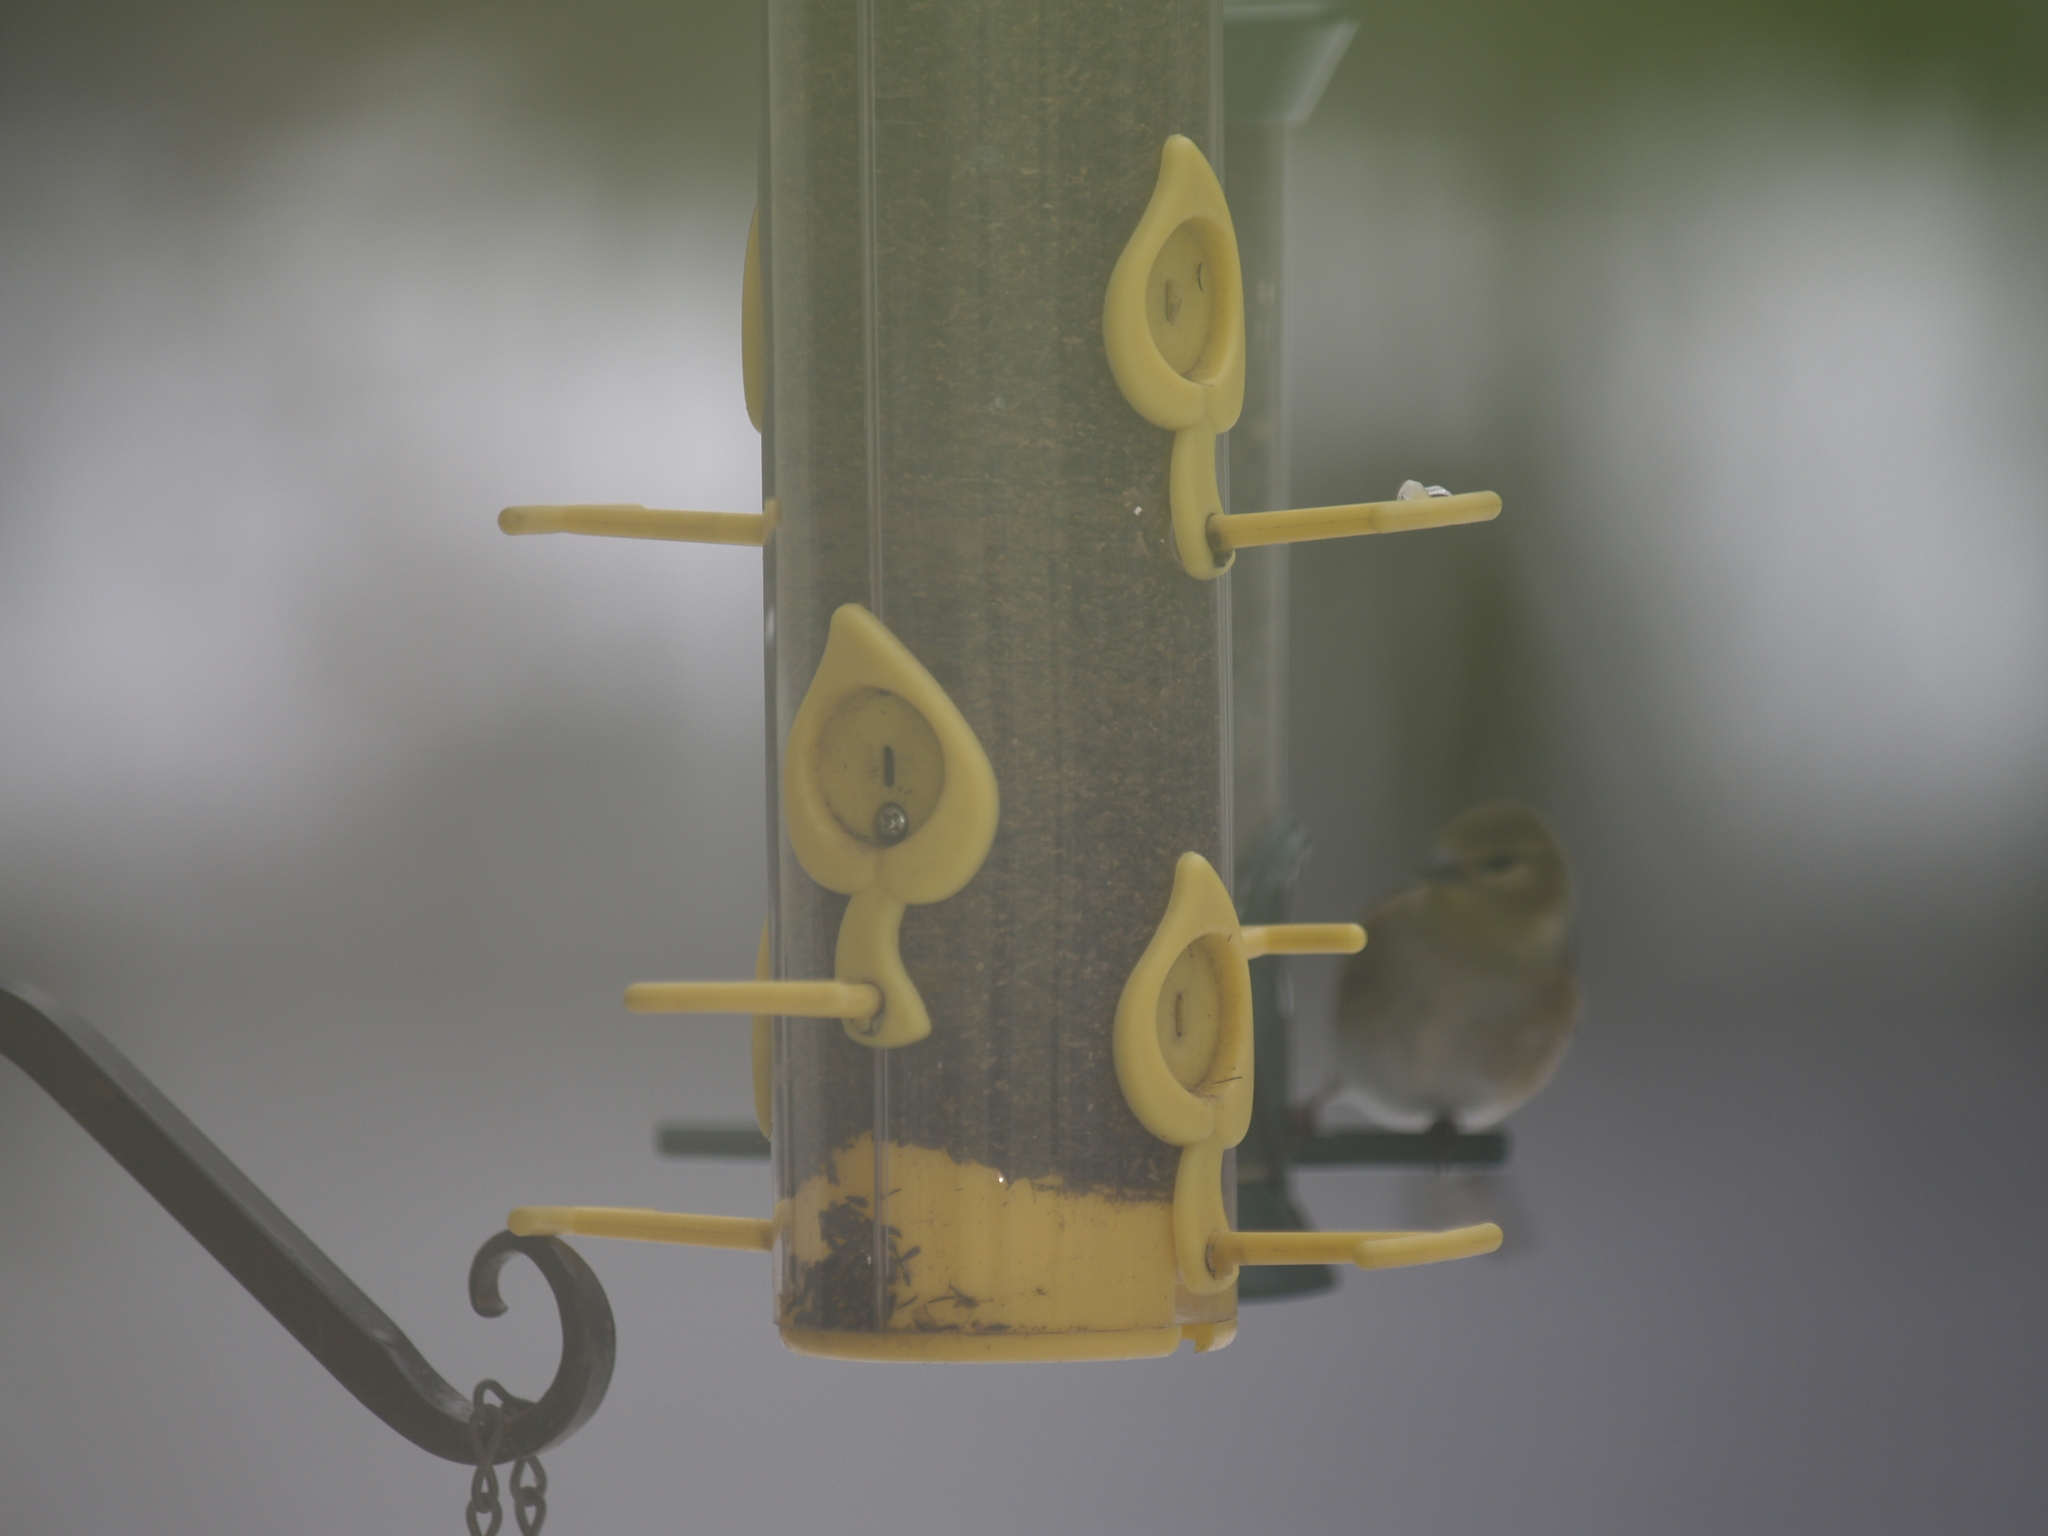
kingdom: Animalia
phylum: Chordata
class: Aves
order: Passeriformes
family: Fringillidae
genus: Spinus
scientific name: Spinus tristis
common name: American goldfinch
